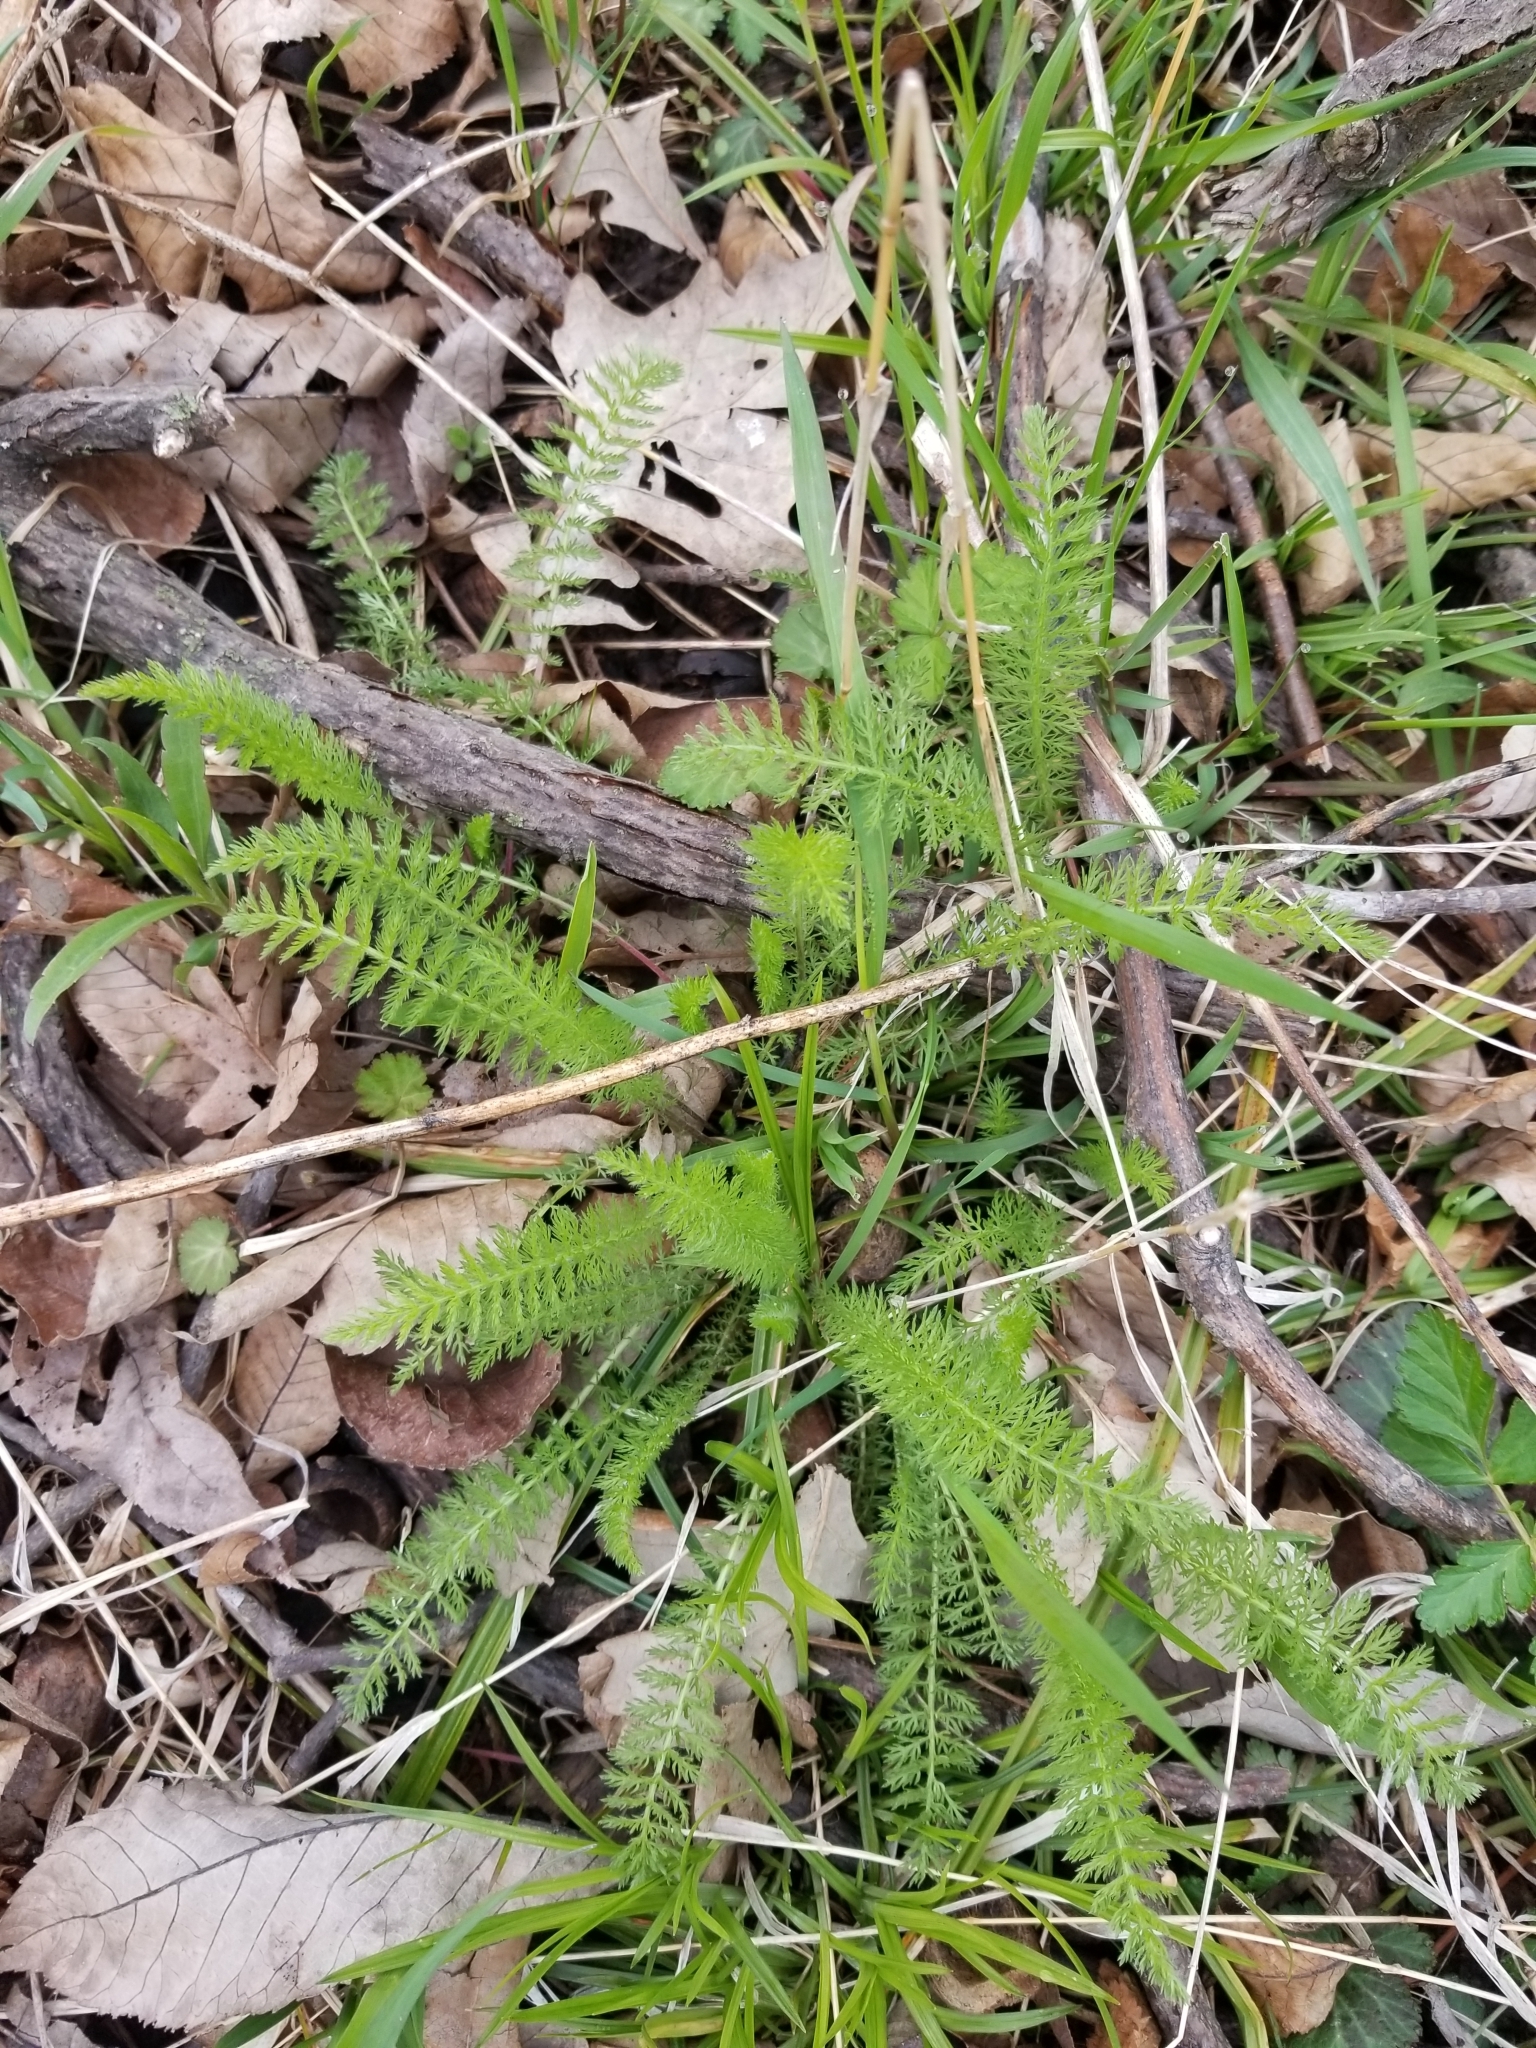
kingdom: Plantae
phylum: Tracheophyta
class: Magnoliopsida
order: Asterales
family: Asteraceae
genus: Achillea
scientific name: Achillea millefolium
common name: Yarrow
